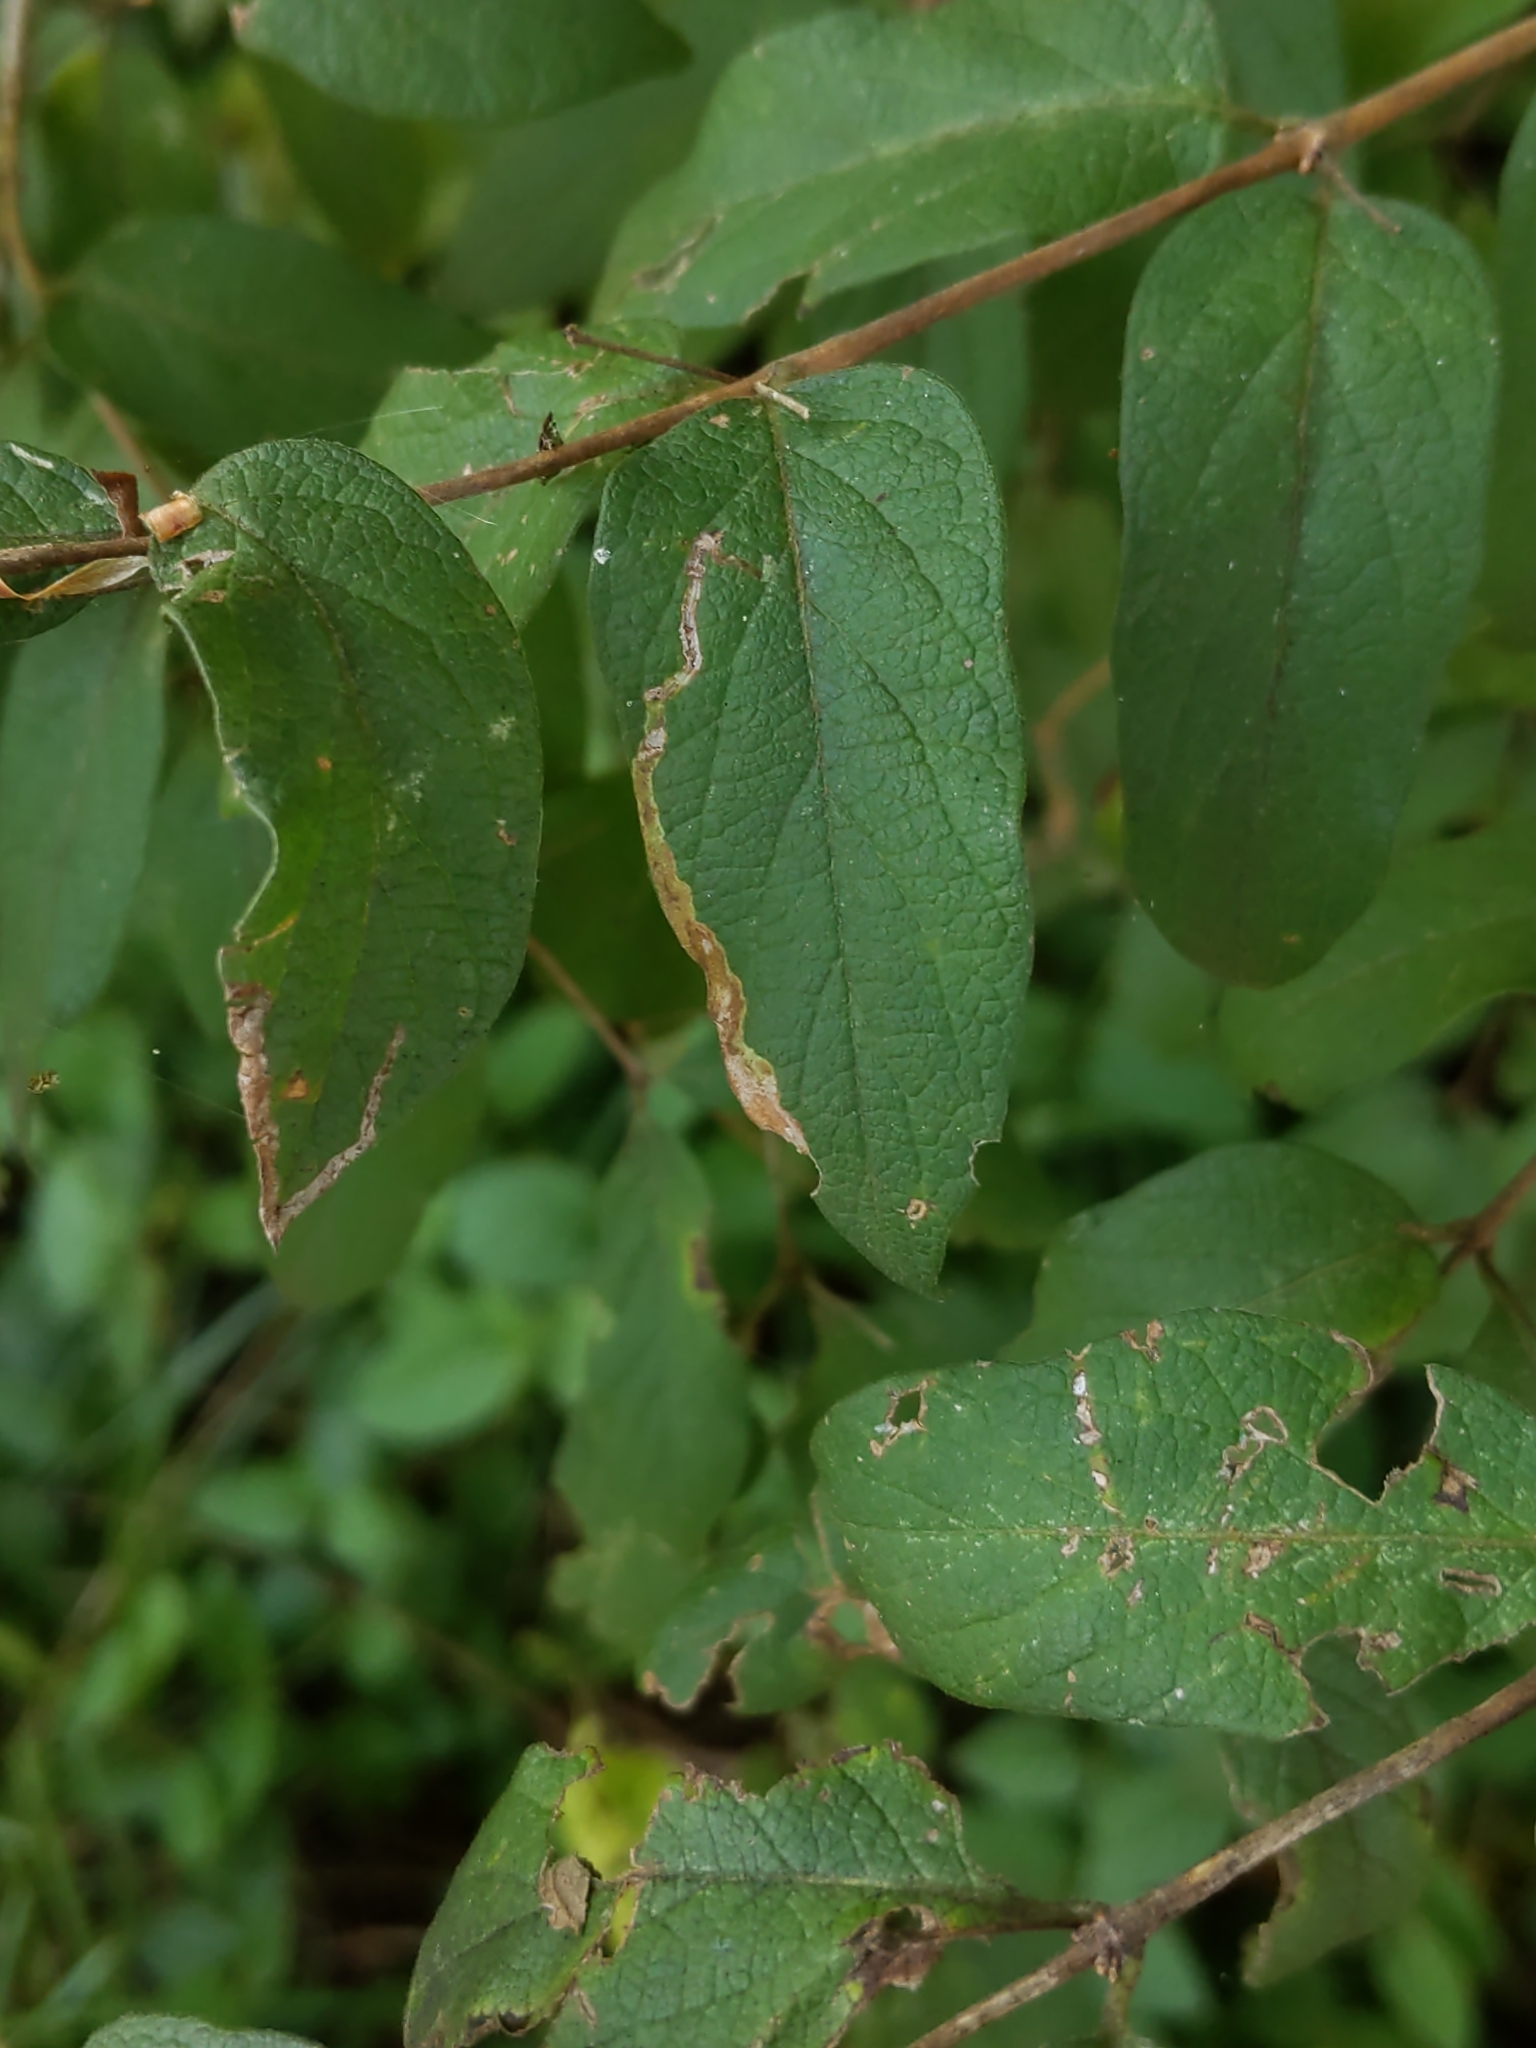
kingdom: Animalia
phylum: Arthropoda
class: Insecta
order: Diptera
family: Agromyzidae
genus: Aulagromyza
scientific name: Aulagromyza
